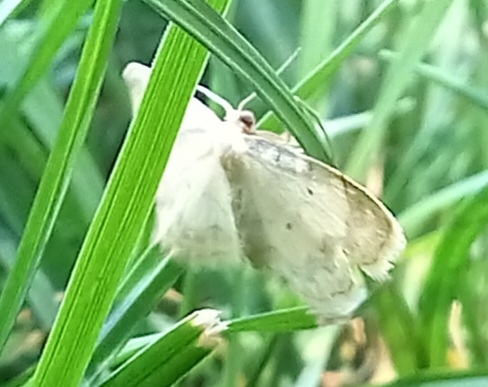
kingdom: Animalia
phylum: Arthropoda
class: Insecta
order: Lepidoptera
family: Geometridae
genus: Idaea
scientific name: Idaea politaria
